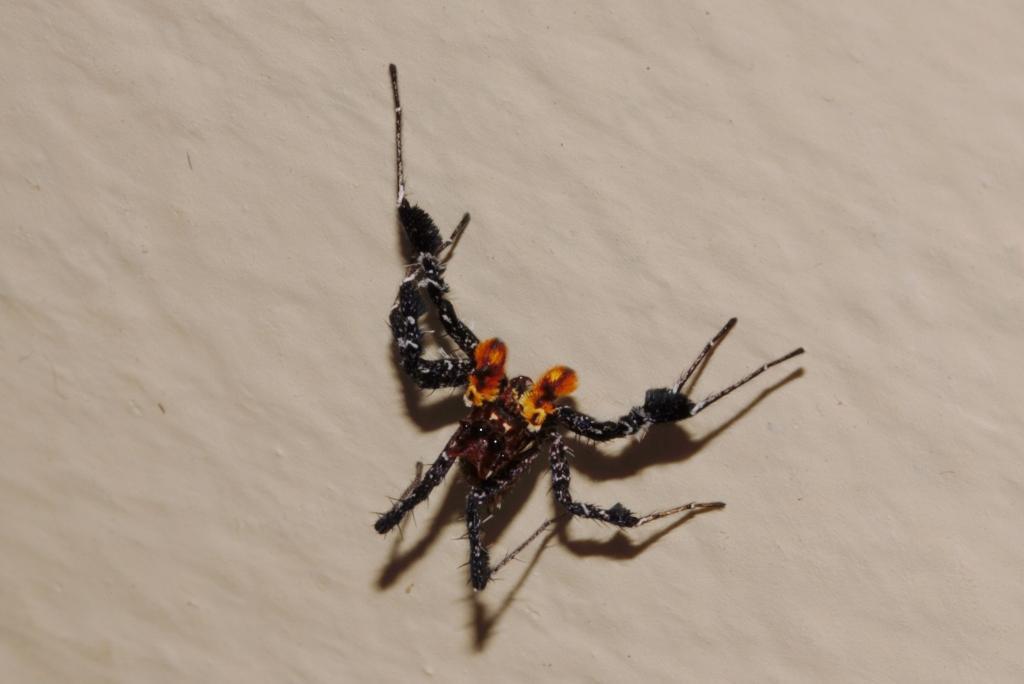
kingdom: Animalia
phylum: Arthropoda
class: Arachnida
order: Araneae
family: Salticidae
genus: Portia
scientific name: Portia schultzi
